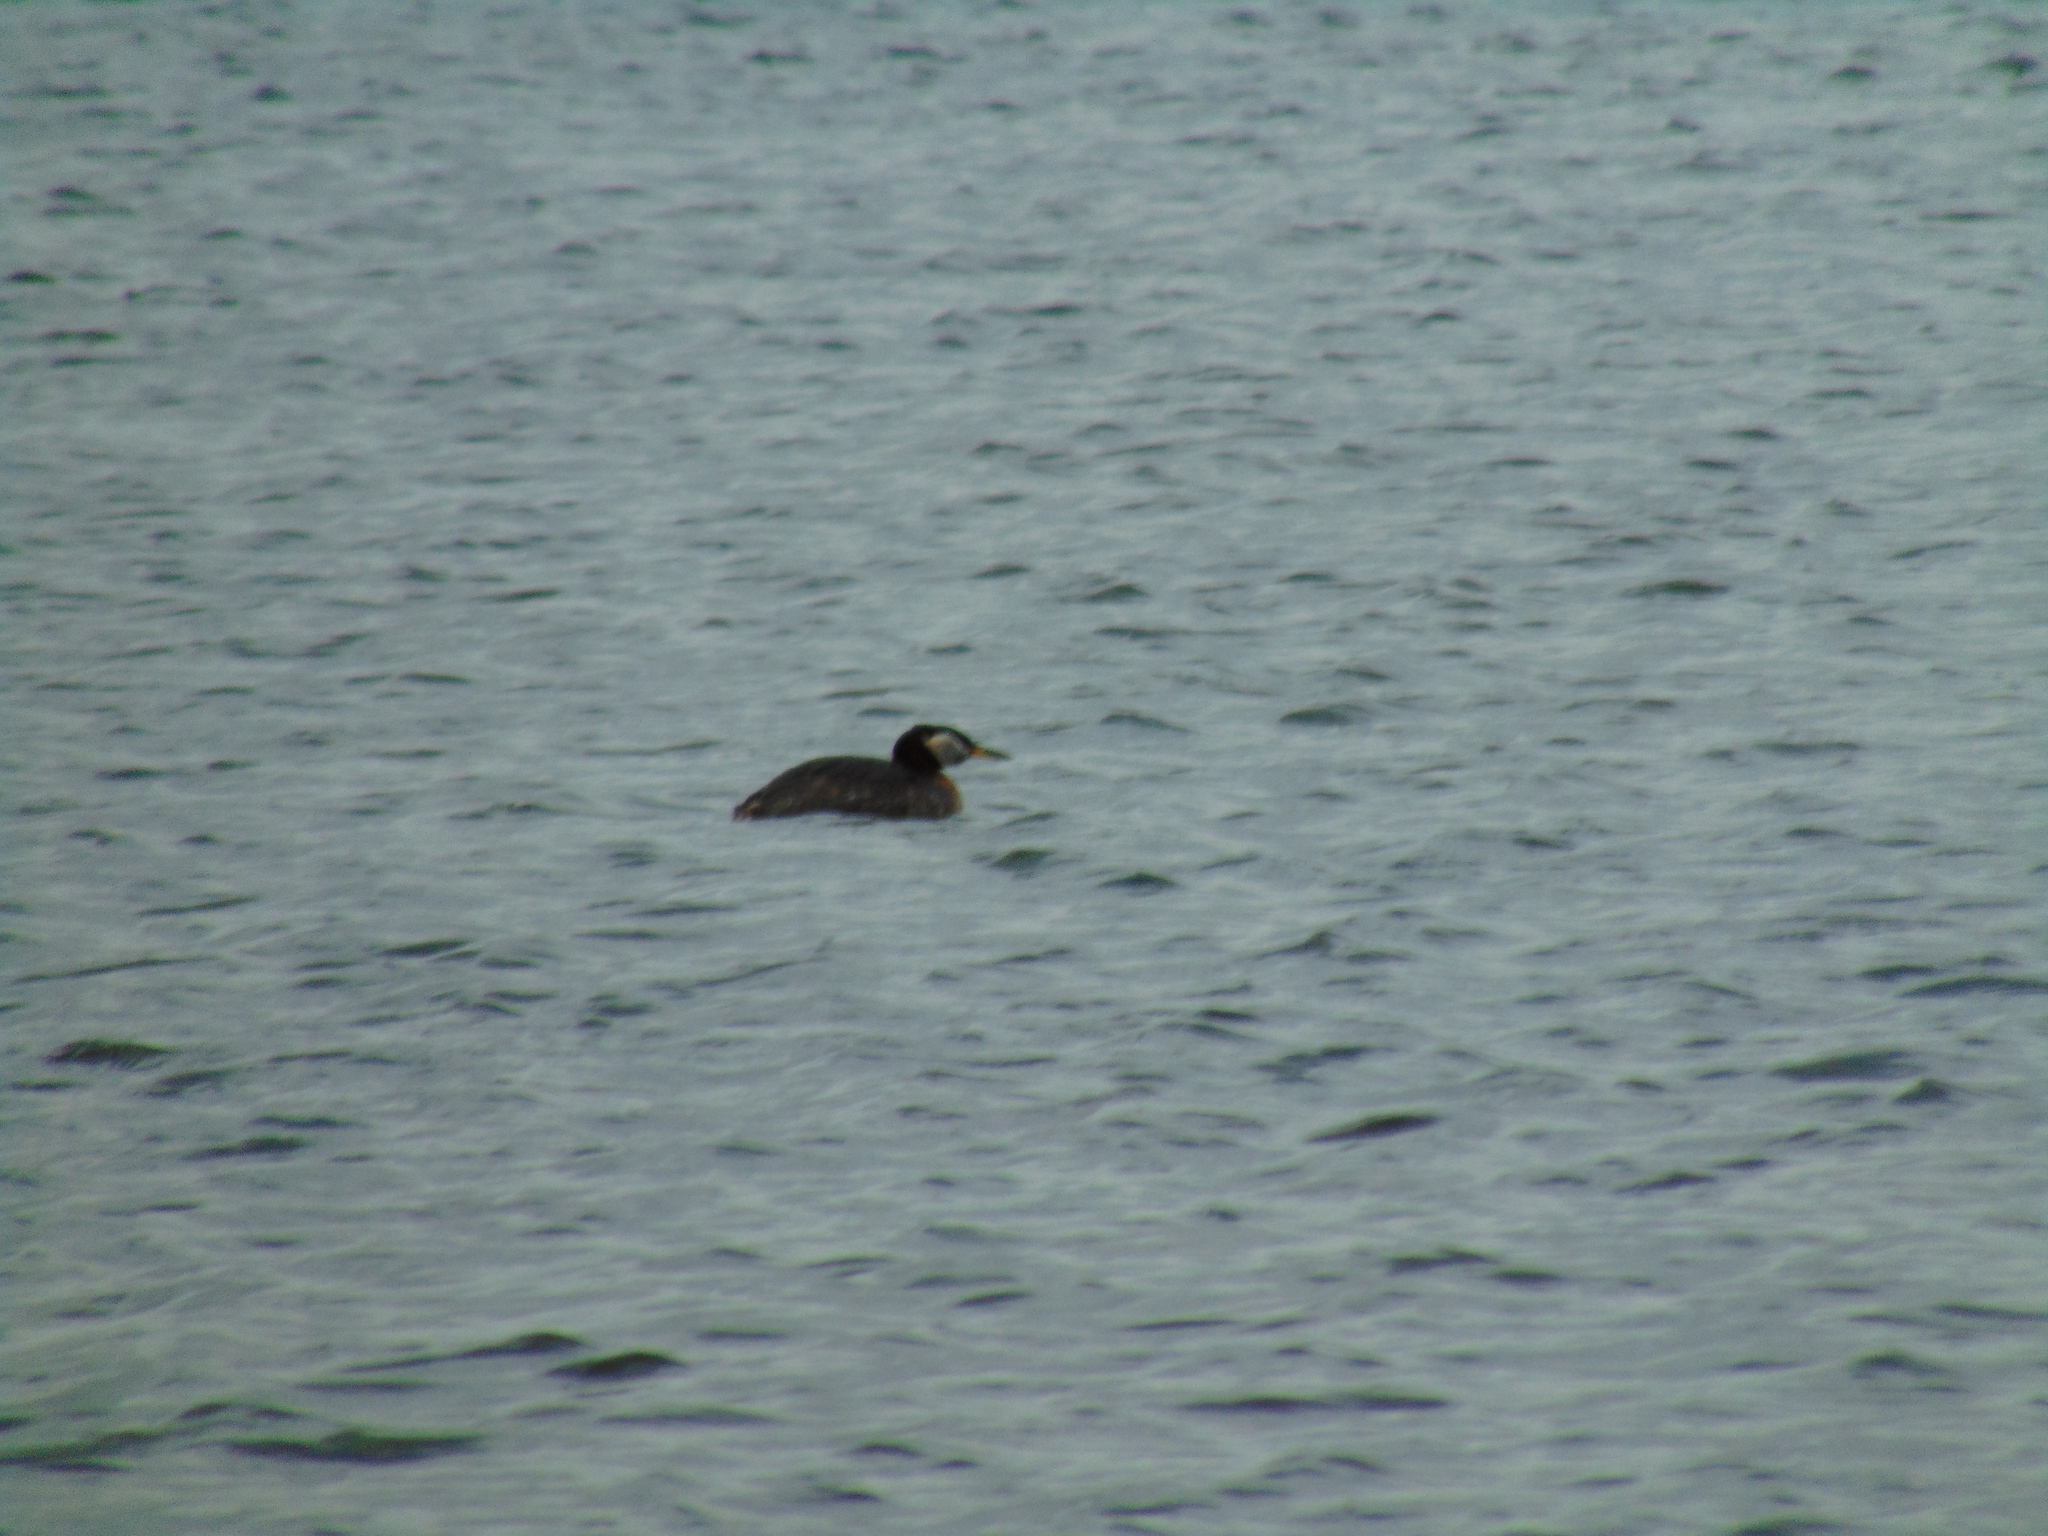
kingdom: Animalia
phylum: Chordata
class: Aves
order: Podicipediformes
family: Podicipedidae
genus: Podiceps
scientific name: Podiceps grisegena
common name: Red-necked grebe
